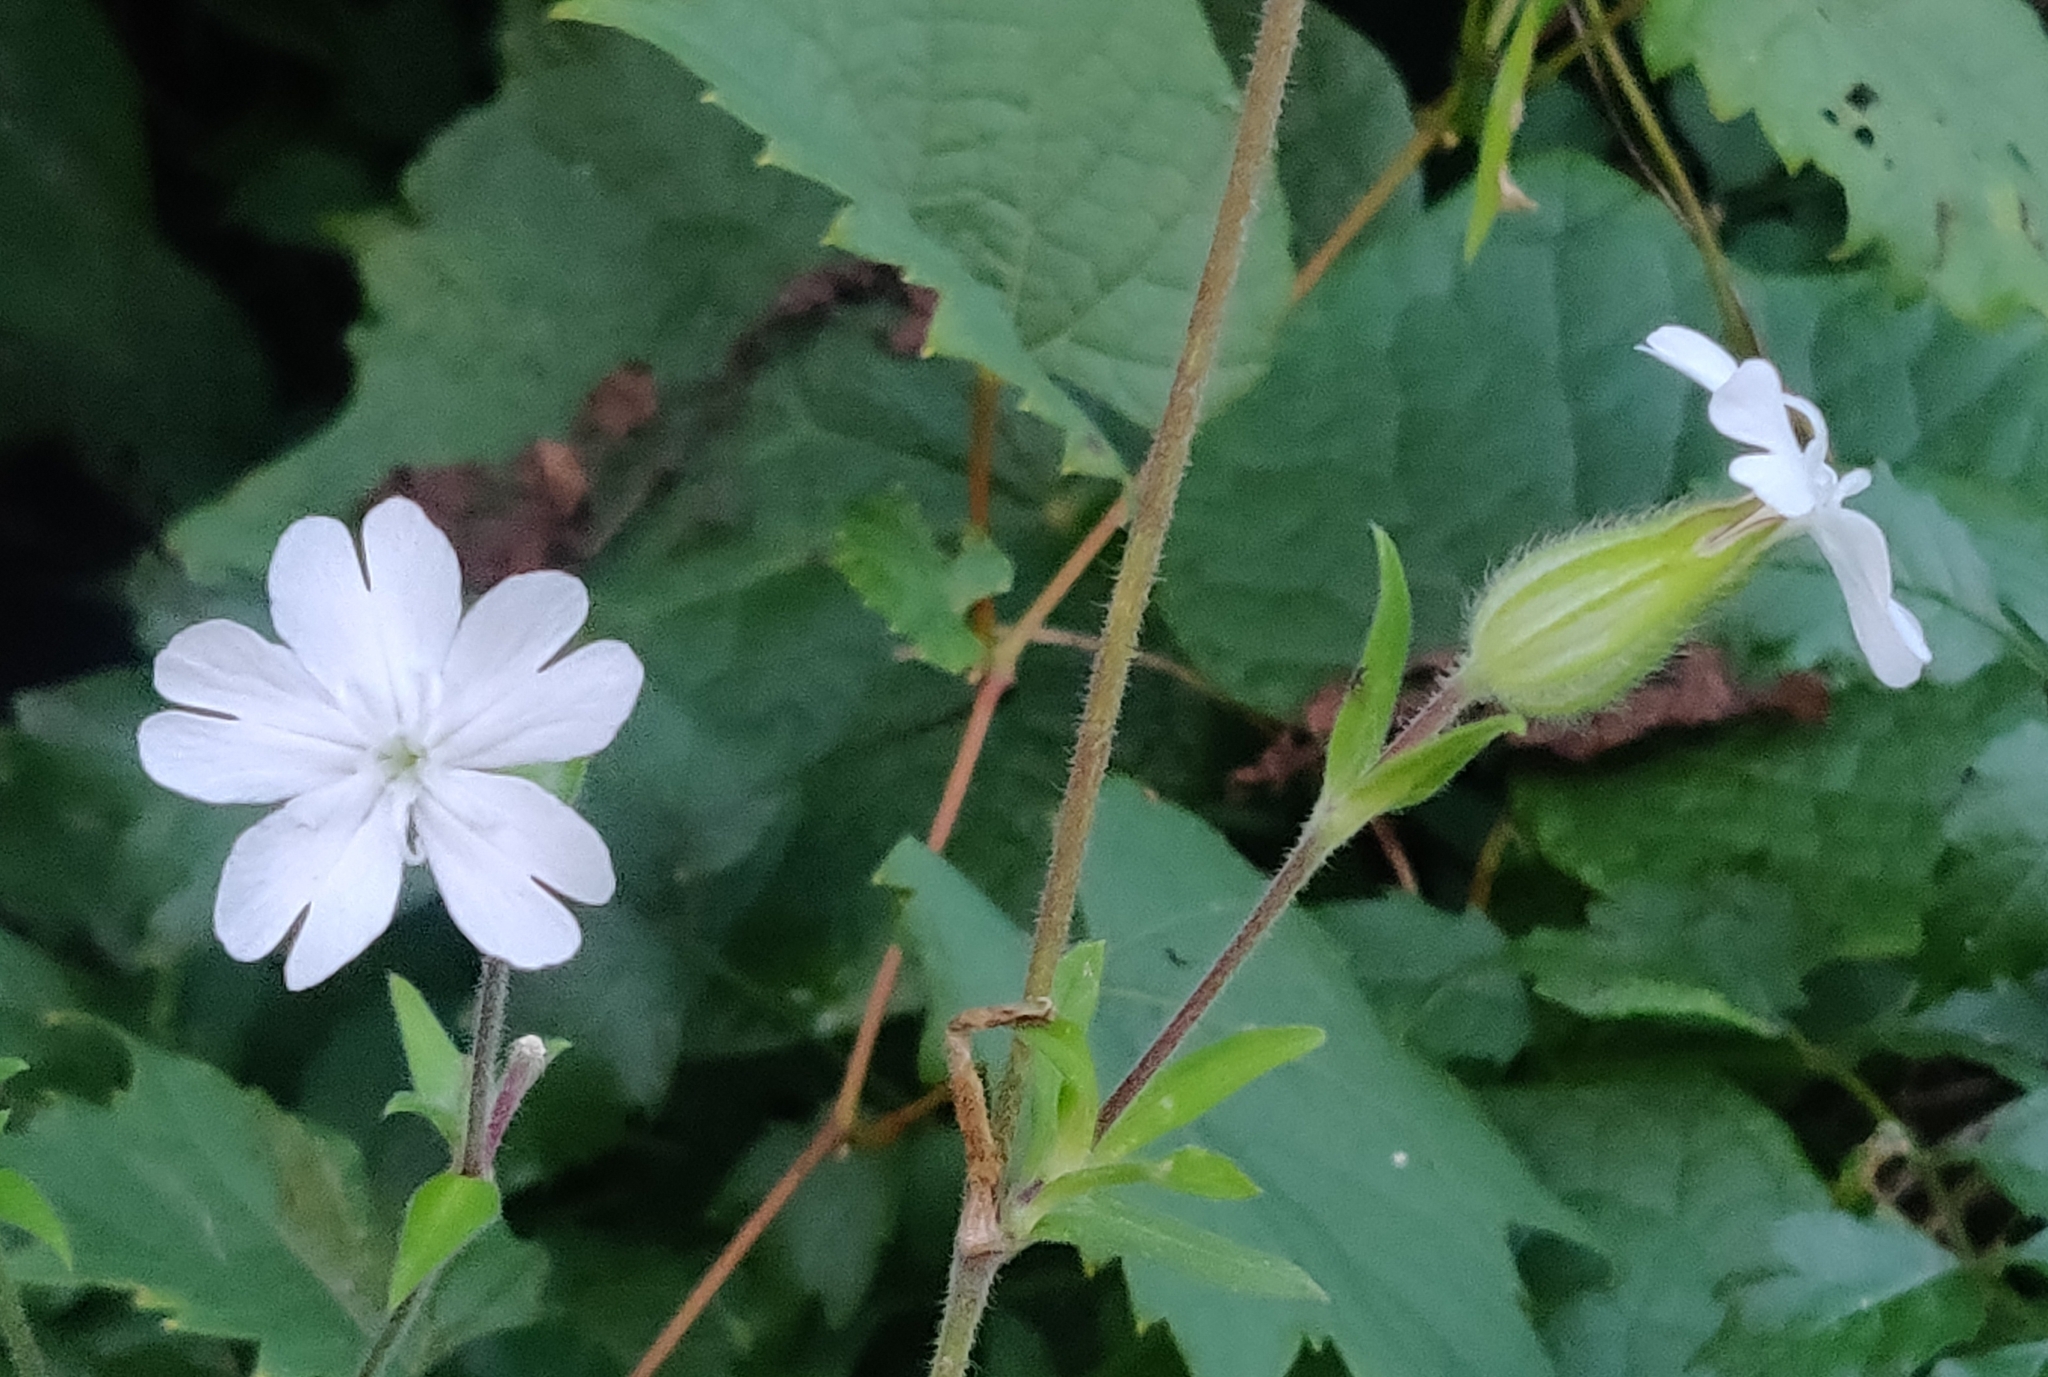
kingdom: Plantae
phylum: Tracheophyta
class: Magnoliopsida
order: Caryophyllales
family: Caryophyllaceae
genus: Silene
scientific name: Silene latifolia
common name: White campion
